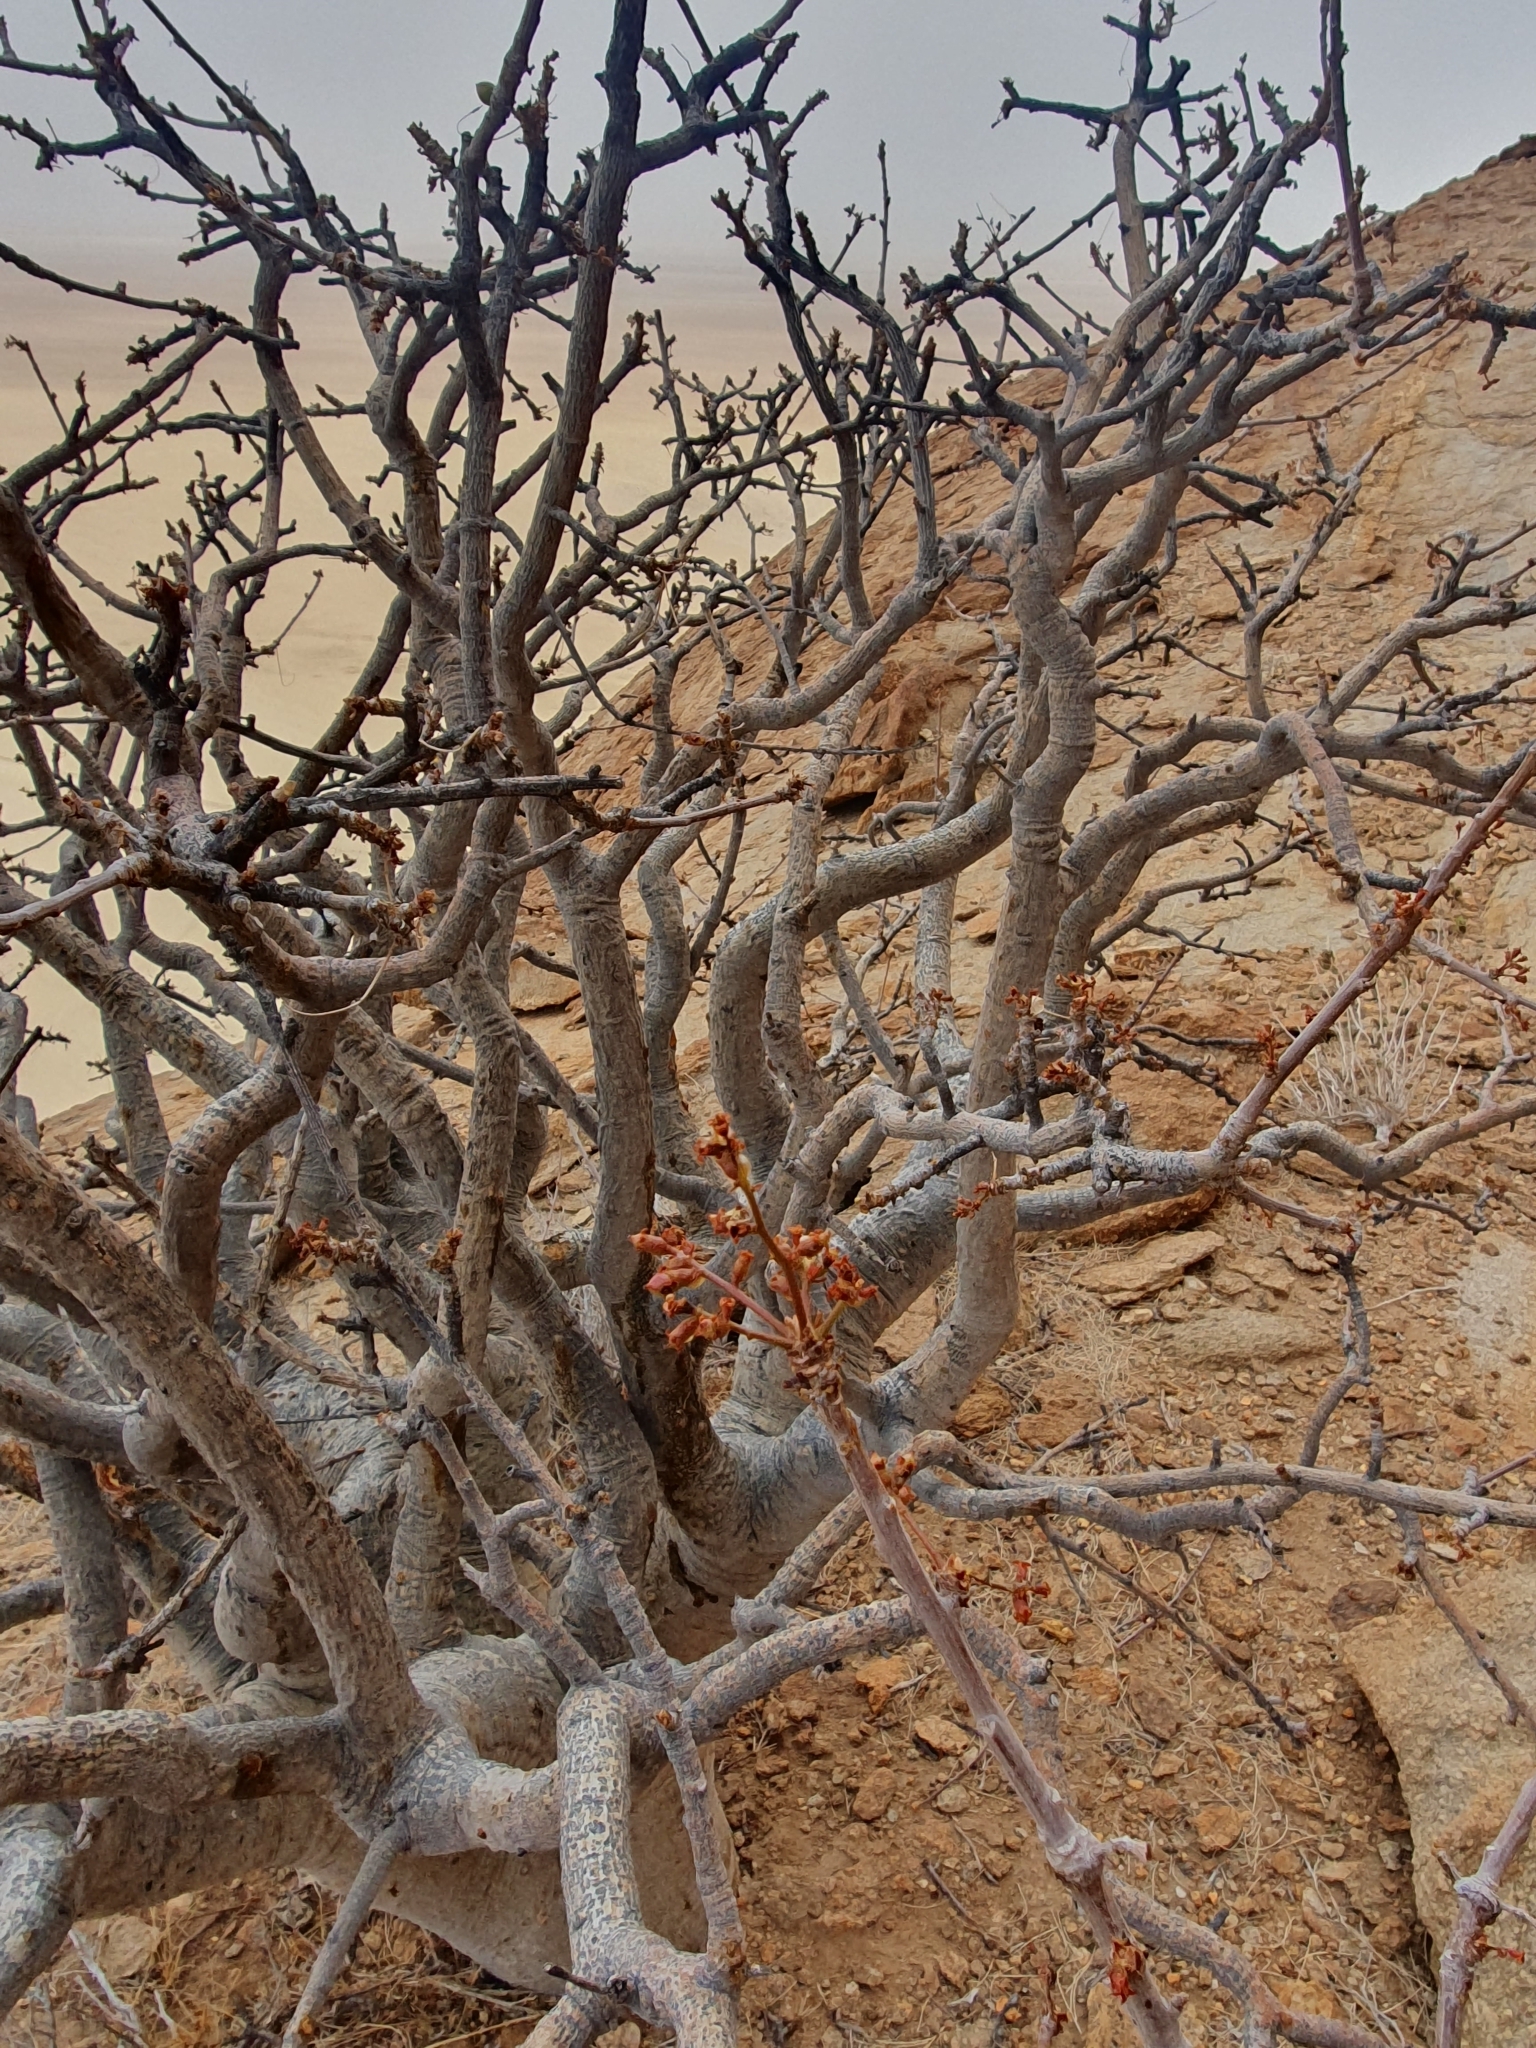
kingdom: Plantae
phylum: Tracheophyta
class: Magnoliopsida
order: Sapindales
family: Burseraceae
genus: Commiphora
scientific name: Commiphora saxicola
